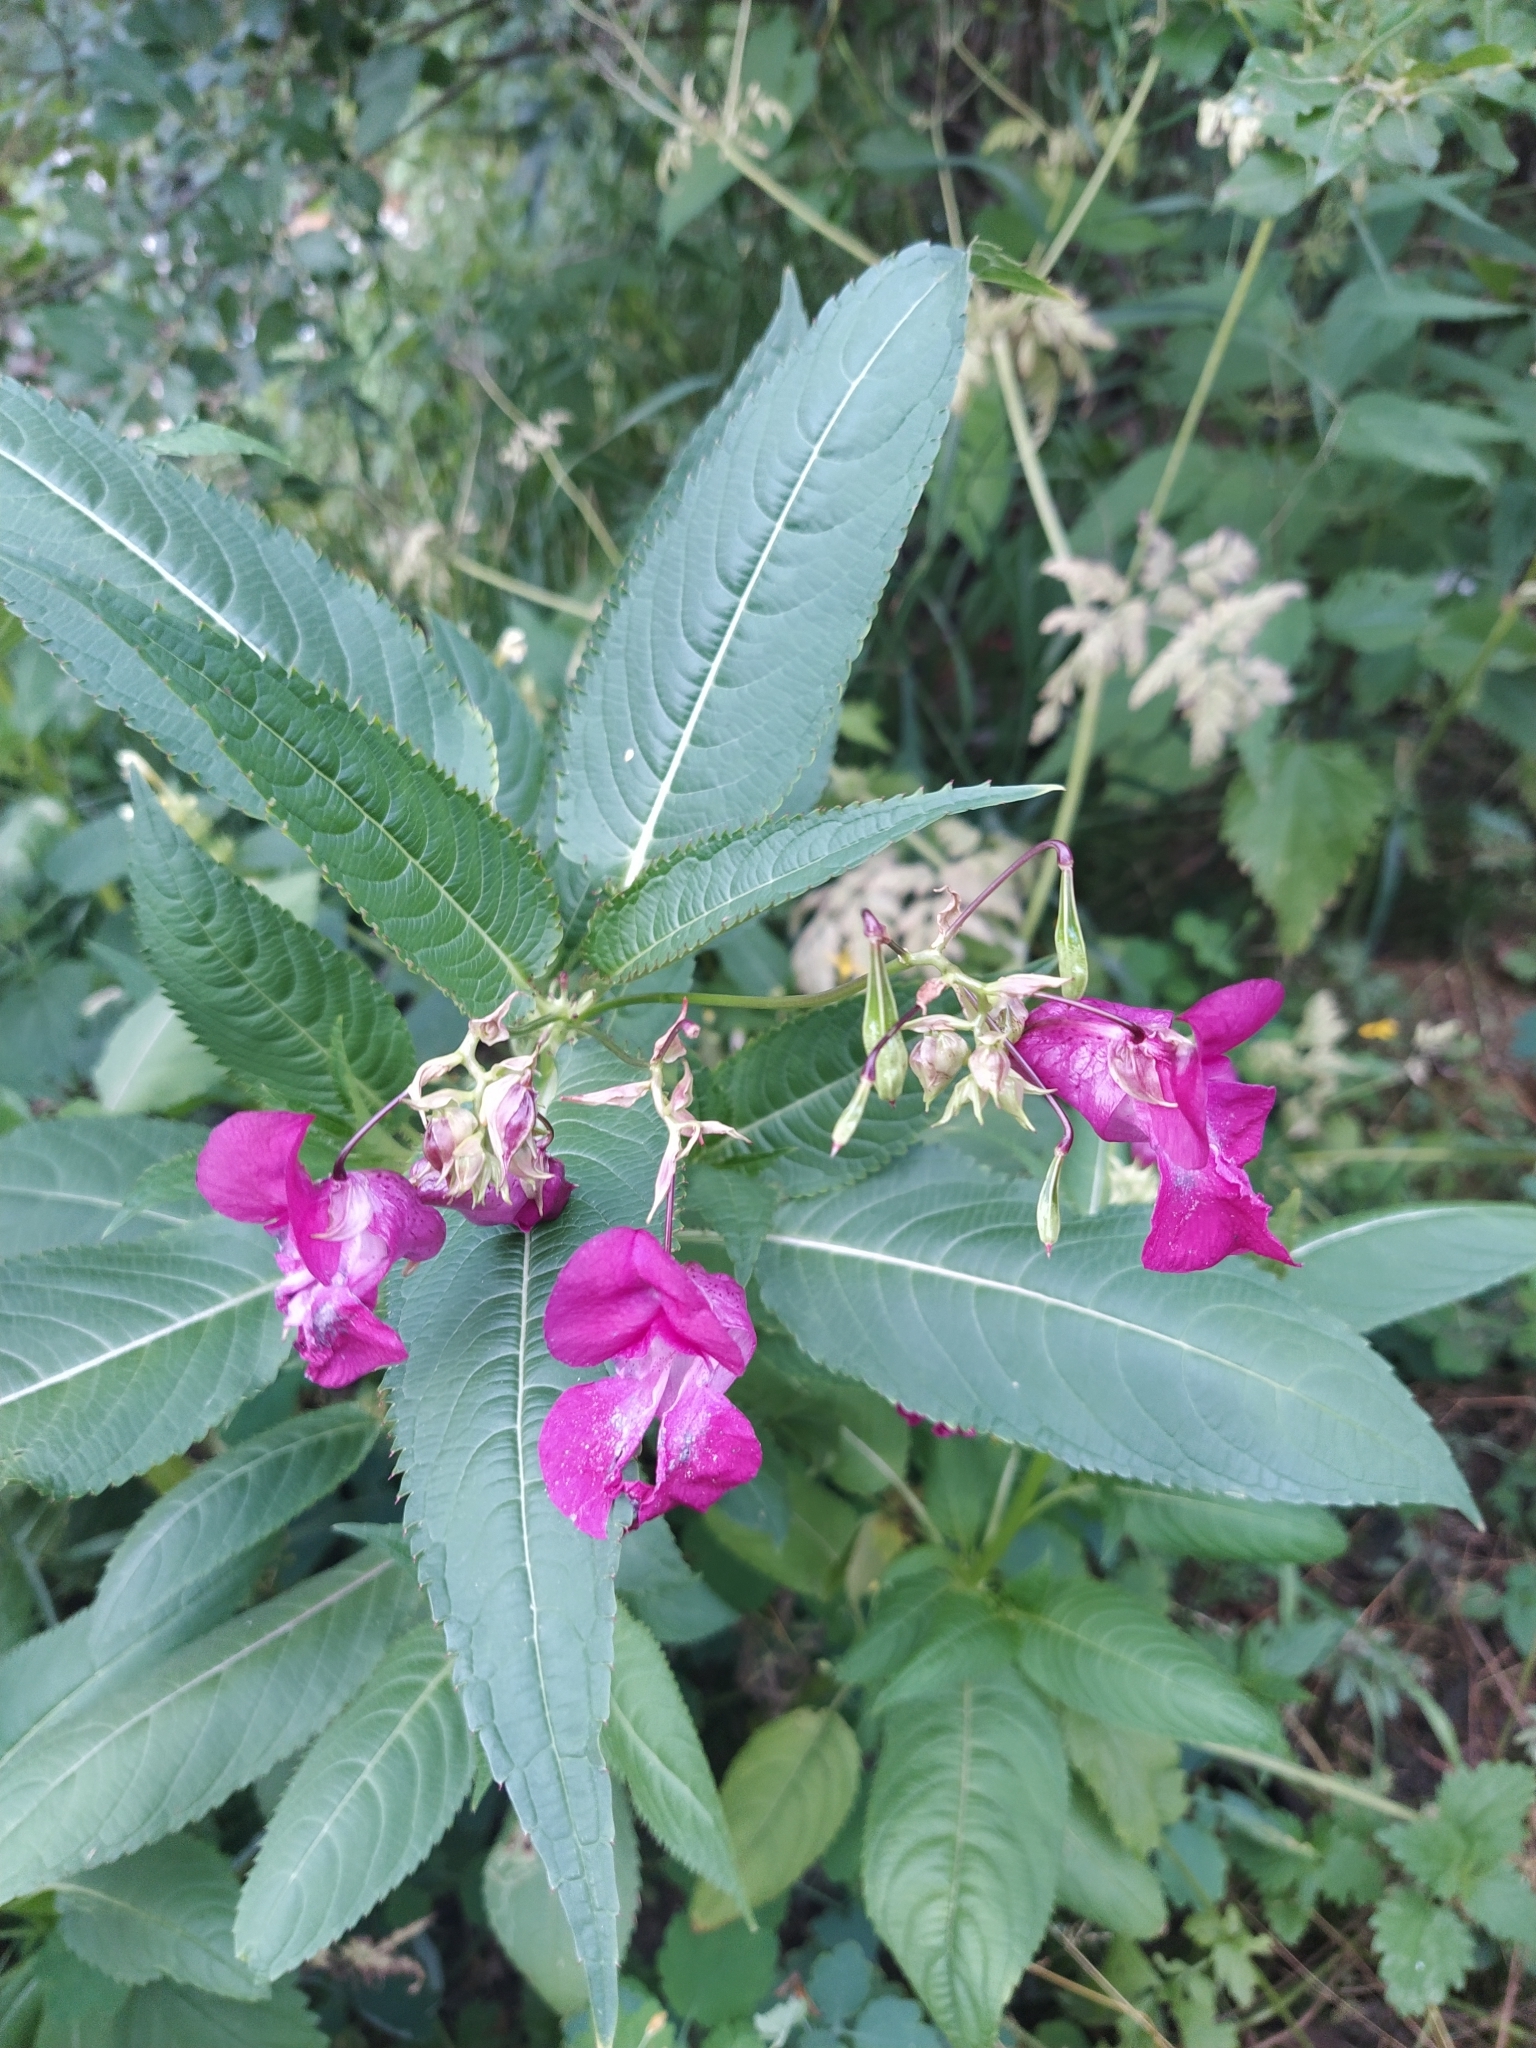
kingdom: Plantae
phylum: Tracheophyta
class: Magnoliopsida
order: Ericales
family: Balsaminaceae
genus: Impatiens
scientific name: Impatiens glandulifera
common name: Himalayan balsam
